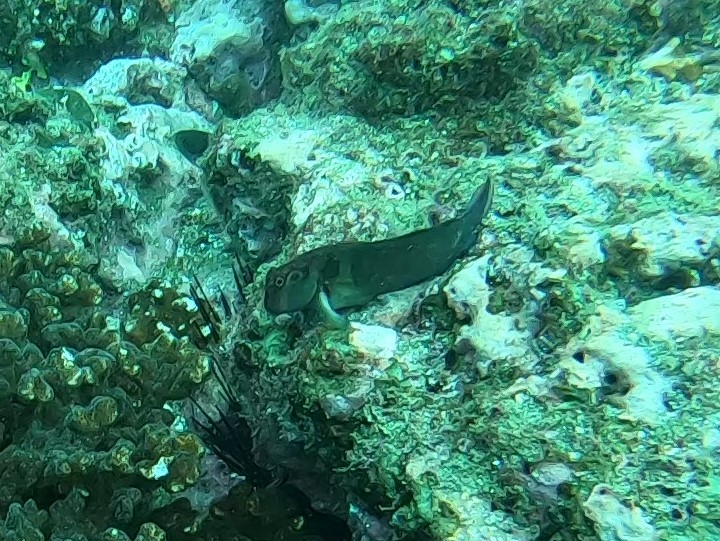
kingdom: Animalia
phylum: Chordata
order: Perciformes
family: Blenniidae
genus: Ophioblennius
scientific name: Ophioblennius steindachneri
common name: Panamic fanged blenny
